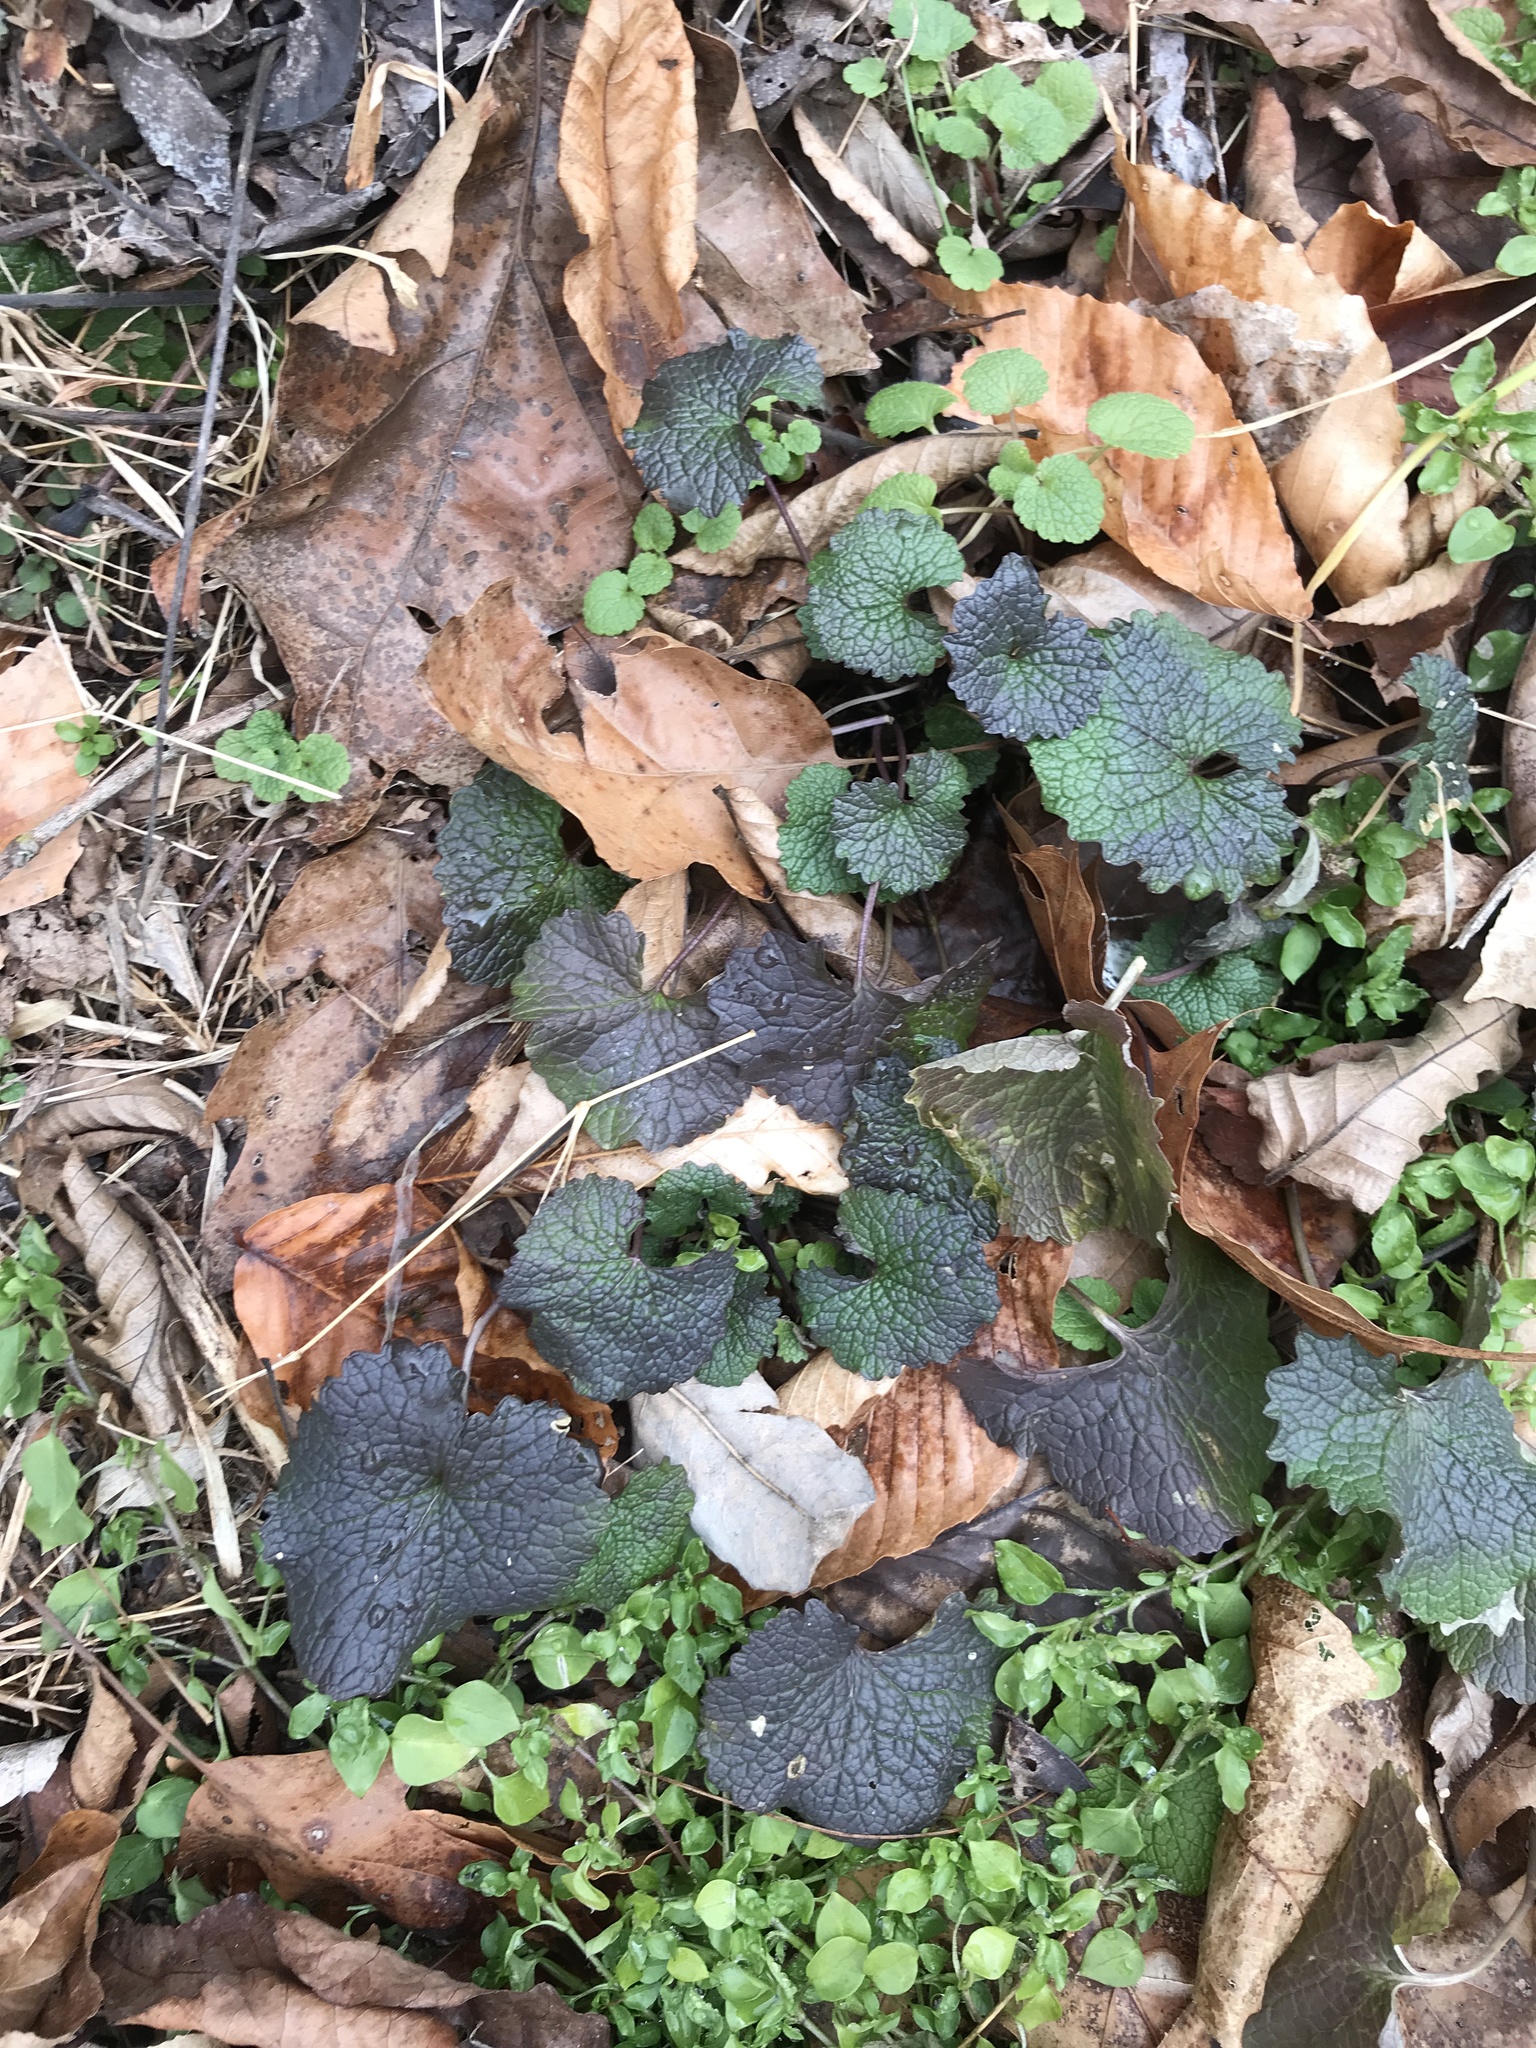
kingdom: Plantae
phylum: Tracheophyta
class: Magnoliopsida
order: Brassicales
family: Brassicaceae
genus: Alliaria
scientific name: Alliaria petiolata
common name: Garlic mustard
